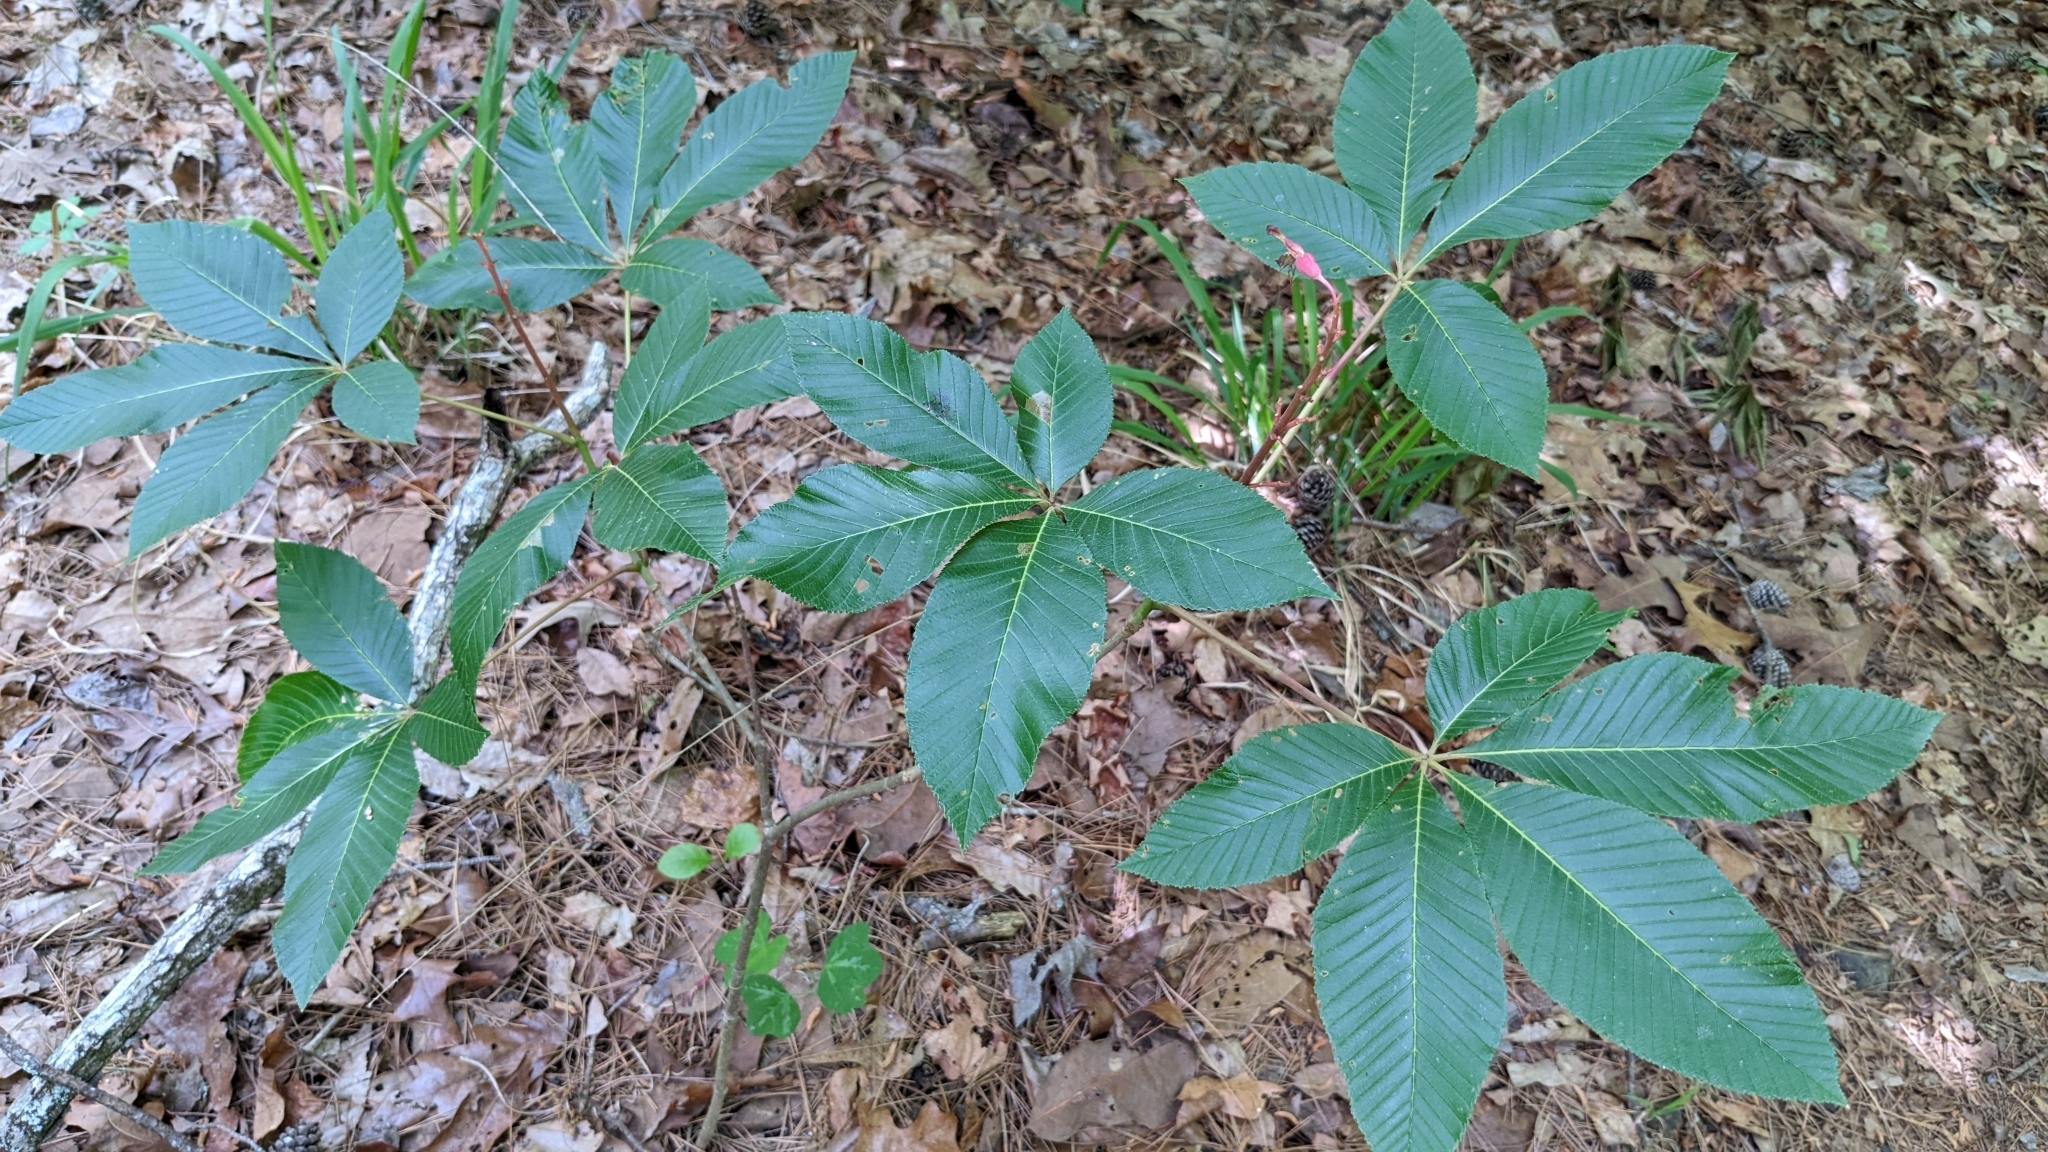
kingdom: Plantae
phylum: Tracheophyta
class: Magnoliopsida
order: Sapindales
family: Sapindaceae
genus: Aesculus
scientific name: Aesculus pavia
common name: Red buckeye
